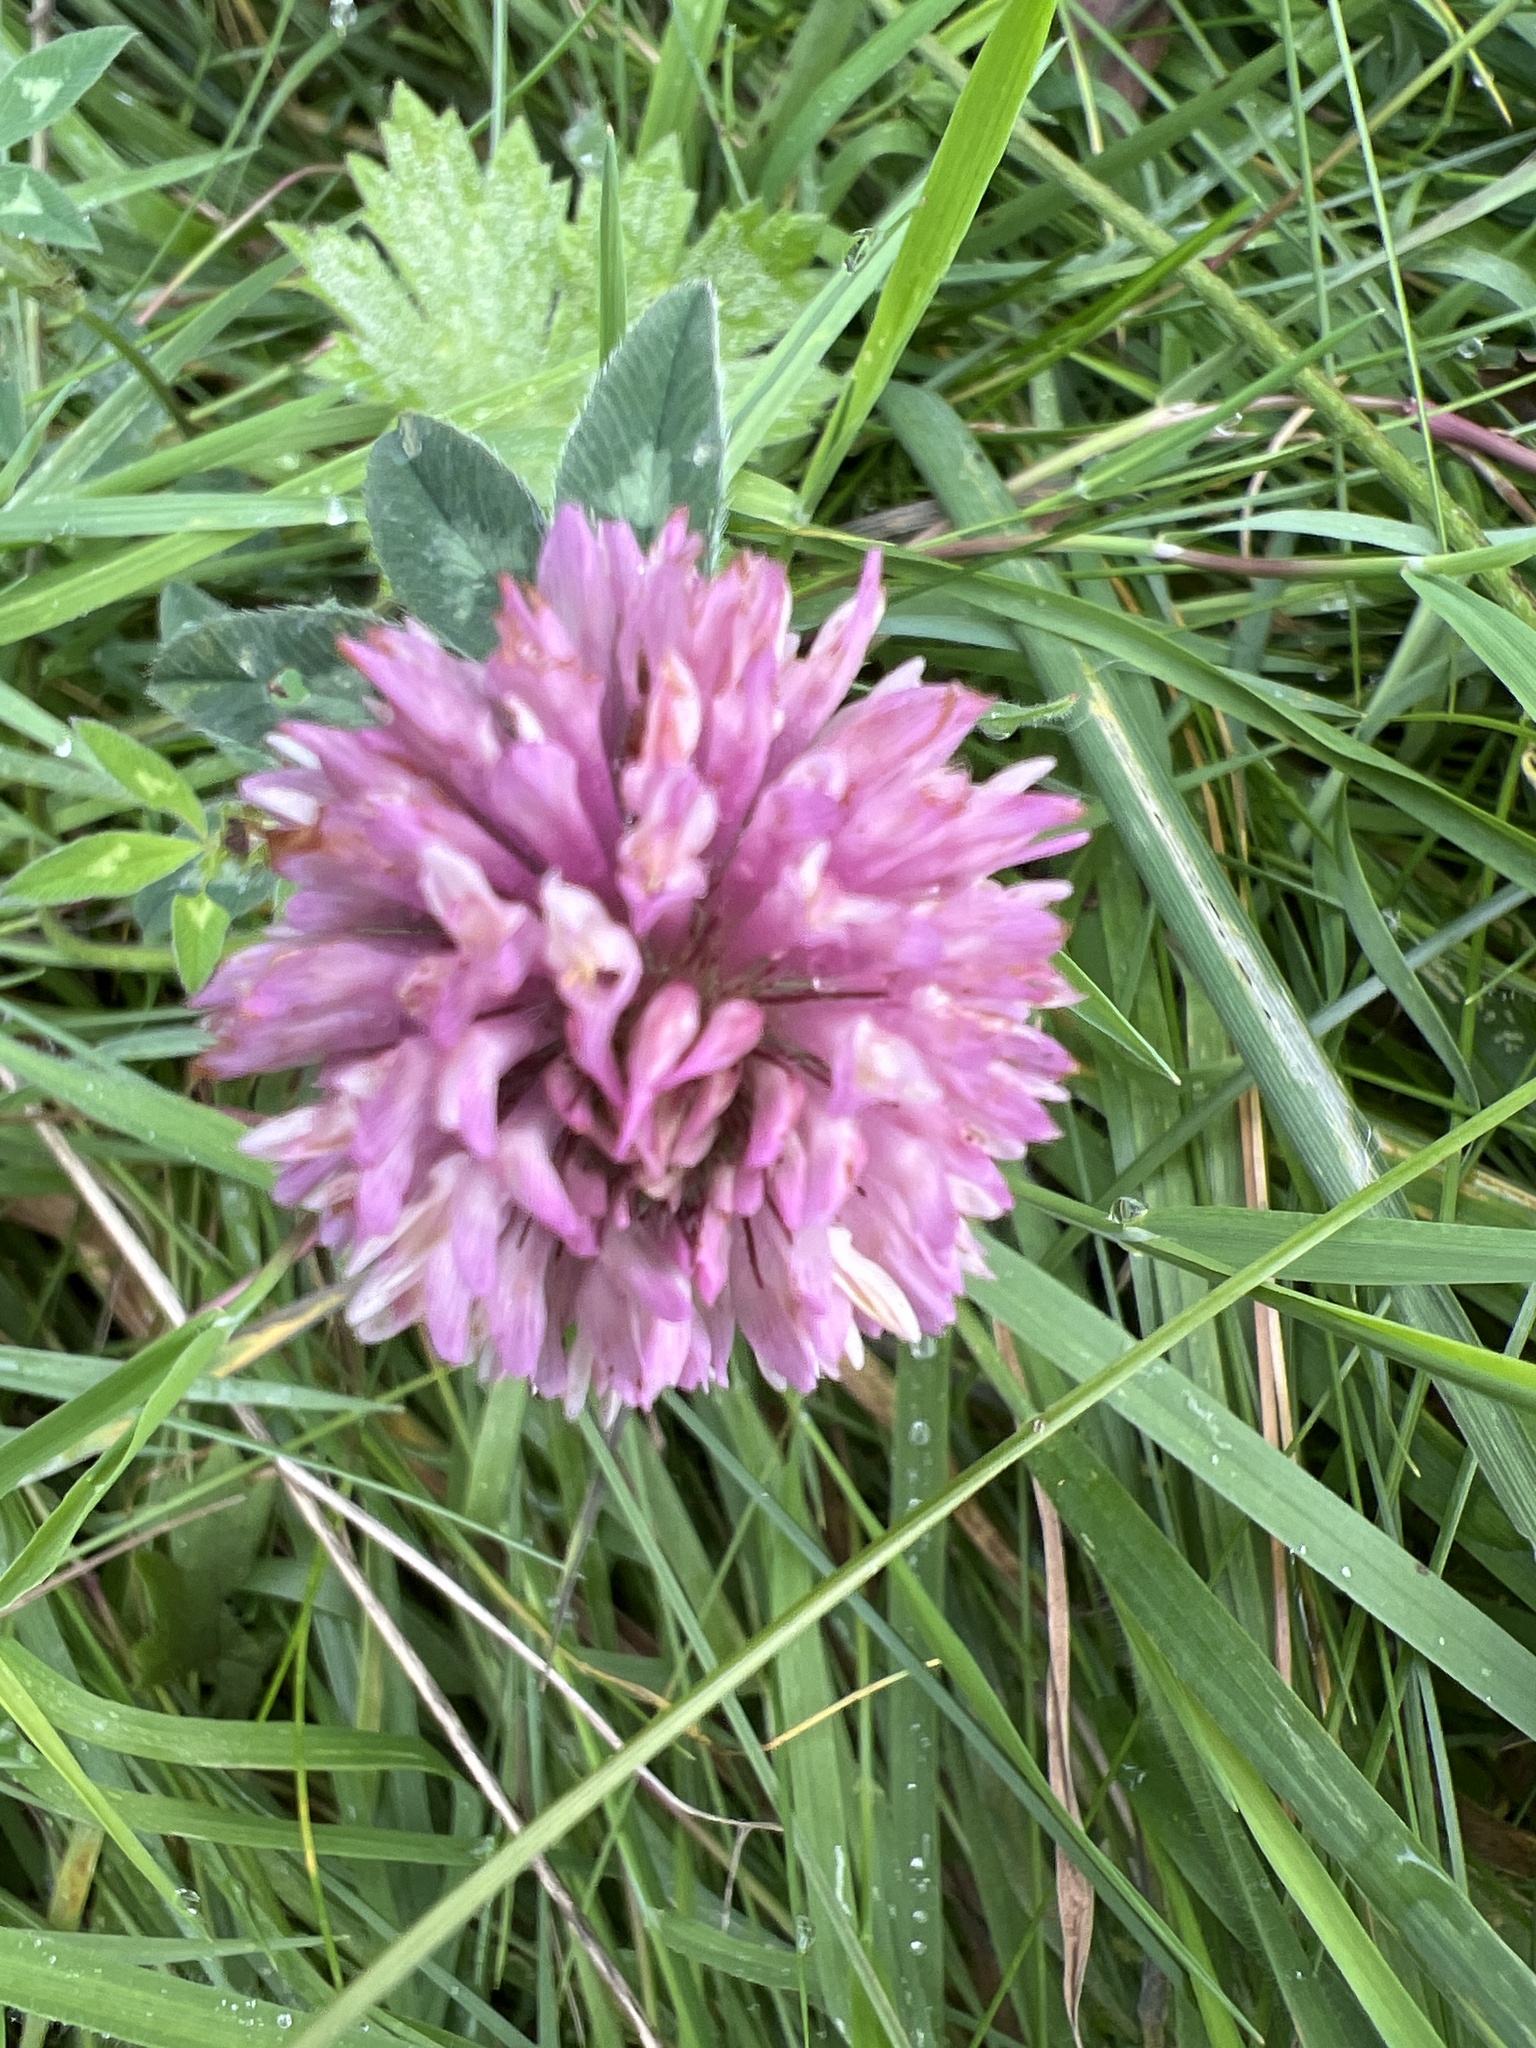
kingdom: Plantae
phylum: Tracheophyta
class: Magnoliopsida
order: Fabales
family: Fabaceae
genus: Trifolium
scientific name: Trifolium pratense
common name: Red clover
